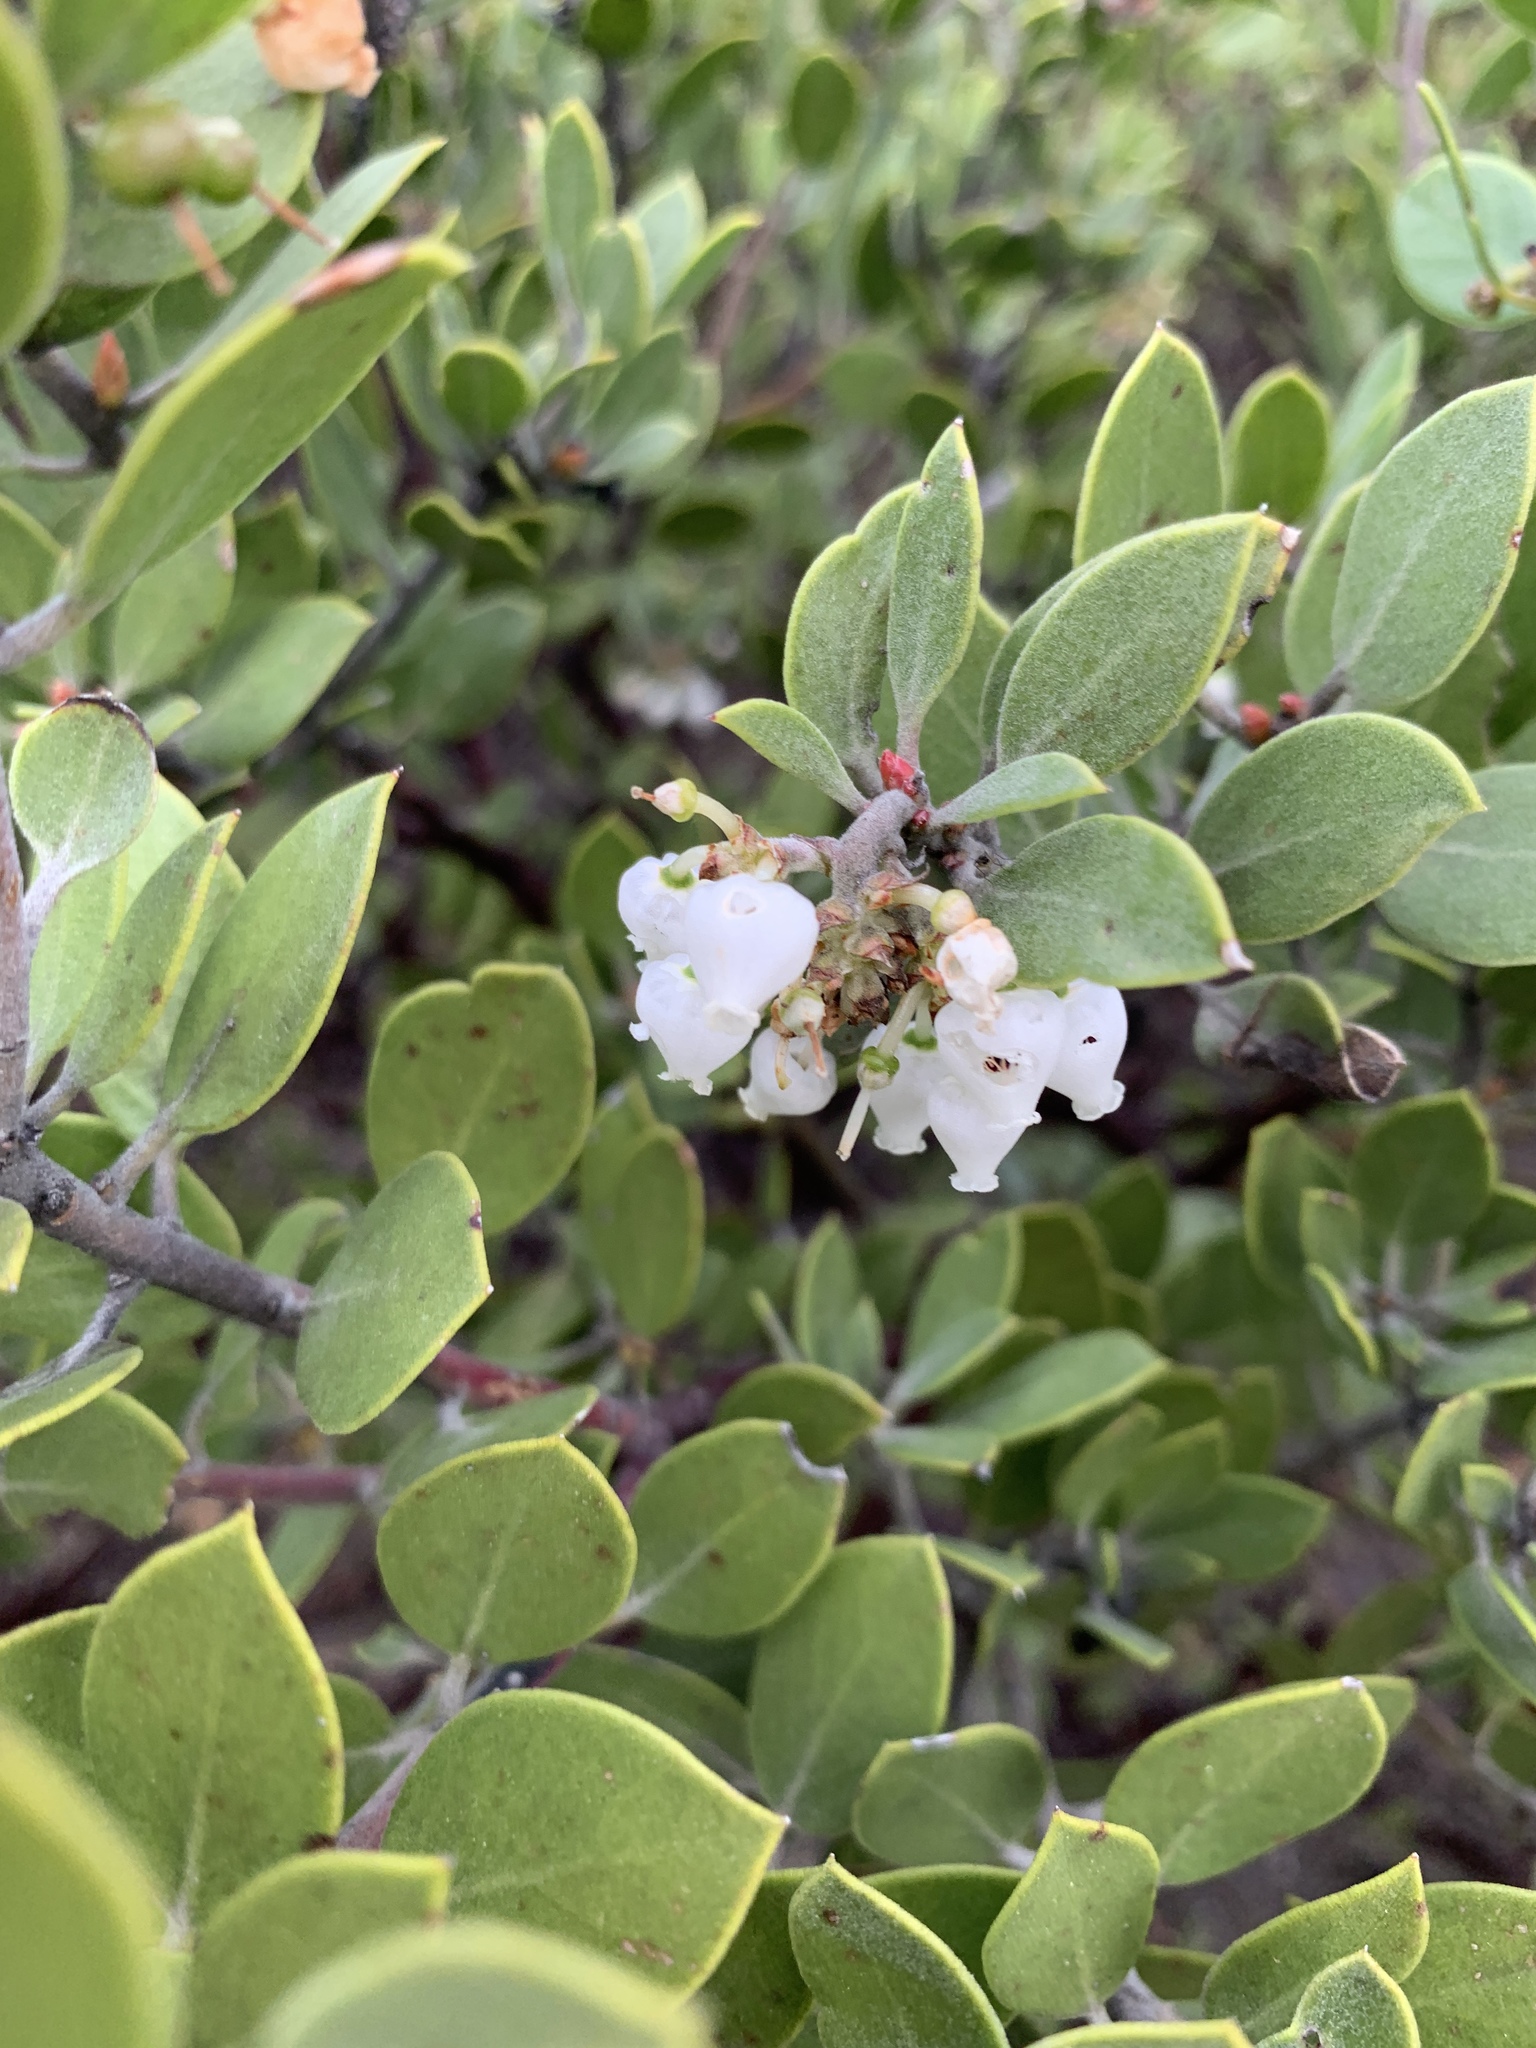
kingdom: Plantae
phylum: Tracheophyta
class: Magnoliopsida
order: Ericales
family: Ericaceae
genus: Arctostaphylos
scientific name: Arctostaphylos montana
